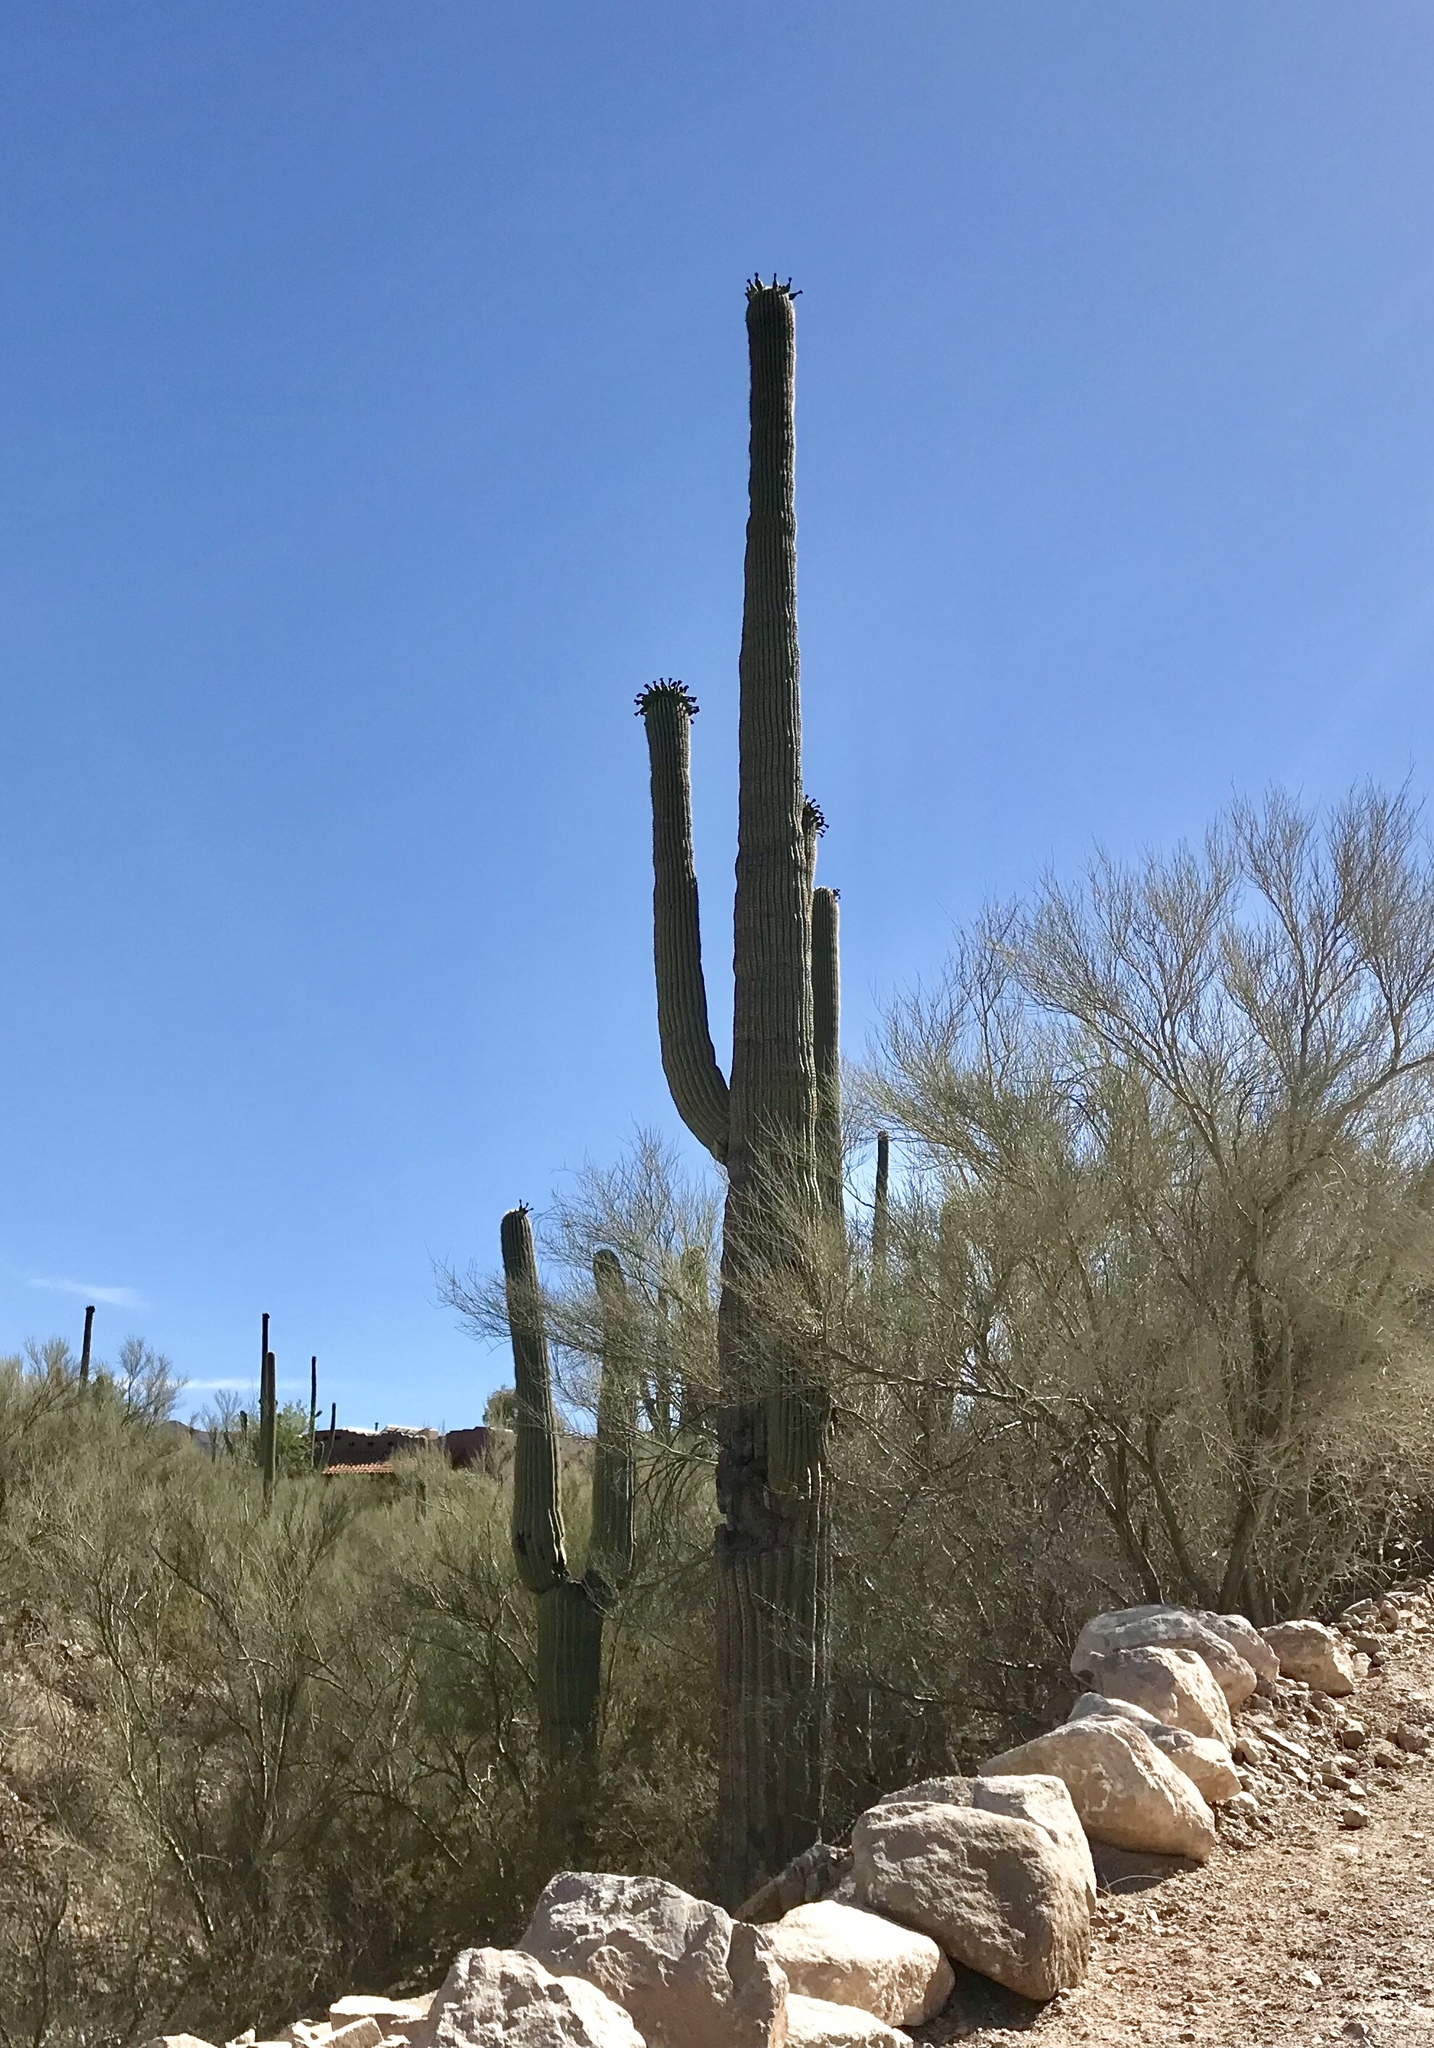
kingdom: Plantae
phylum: Tracheophyta
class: Magnoliopsida
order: Caryophyllales
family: Cactaceae
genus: Carnegiea
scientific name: Carnegiea gigantea
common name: Saguaro
